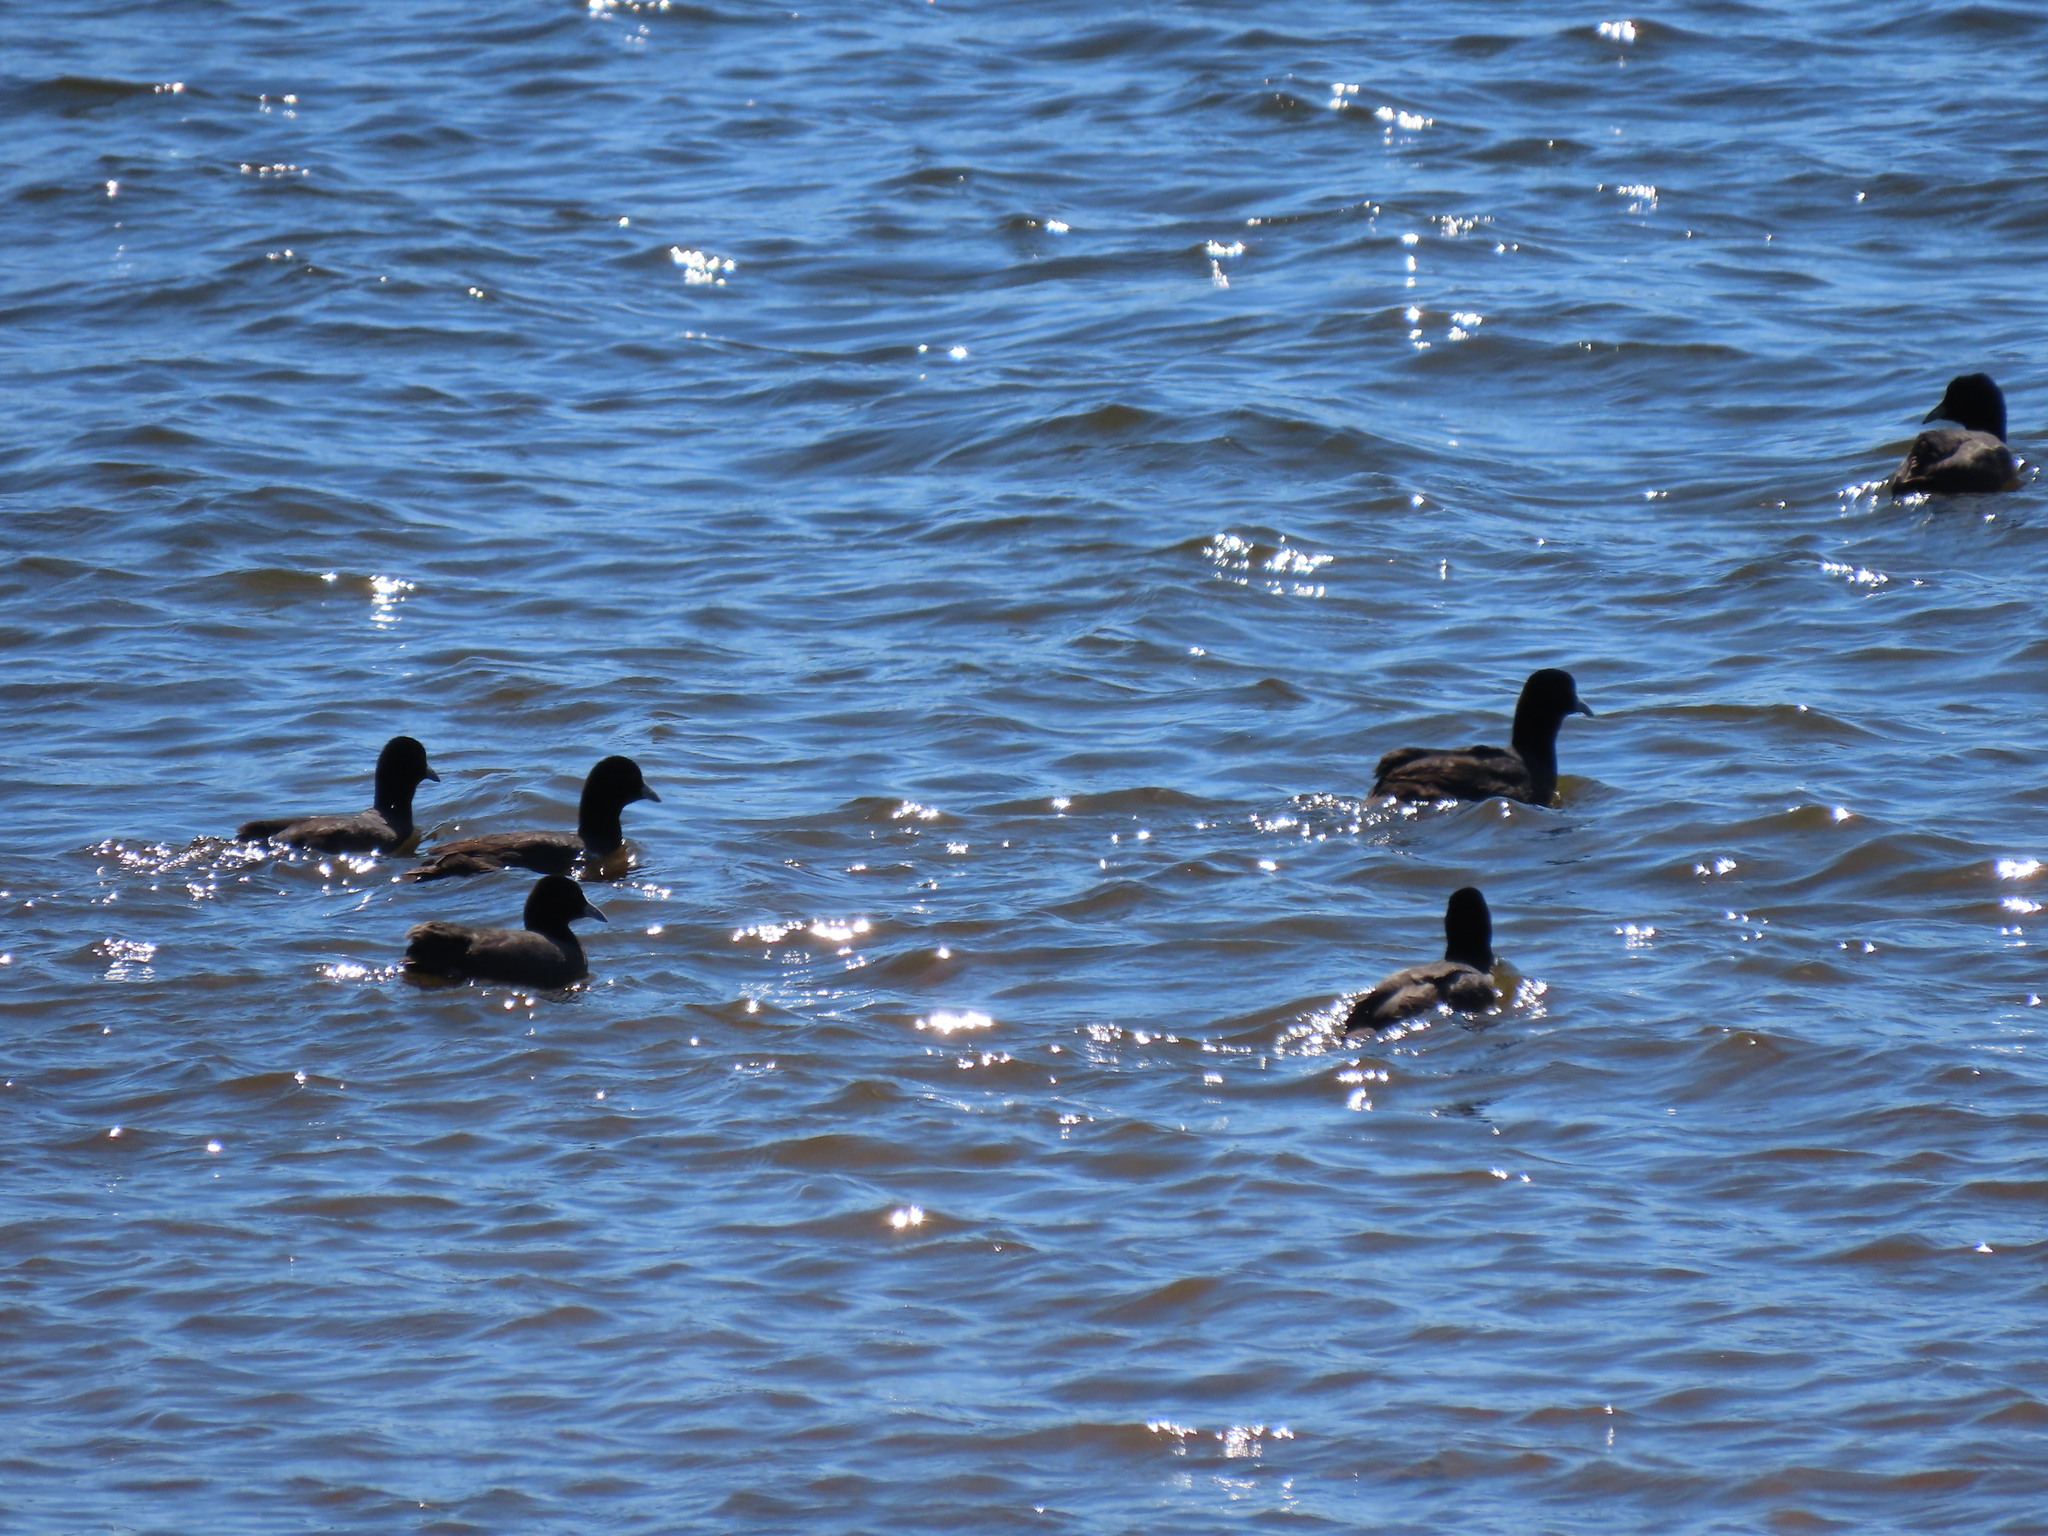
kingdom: Animalia
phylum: Chordata
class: Aves
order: Gruiformes
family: Rallidae
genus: Fulica
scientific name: Fulica atra
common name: Eurasian coot
